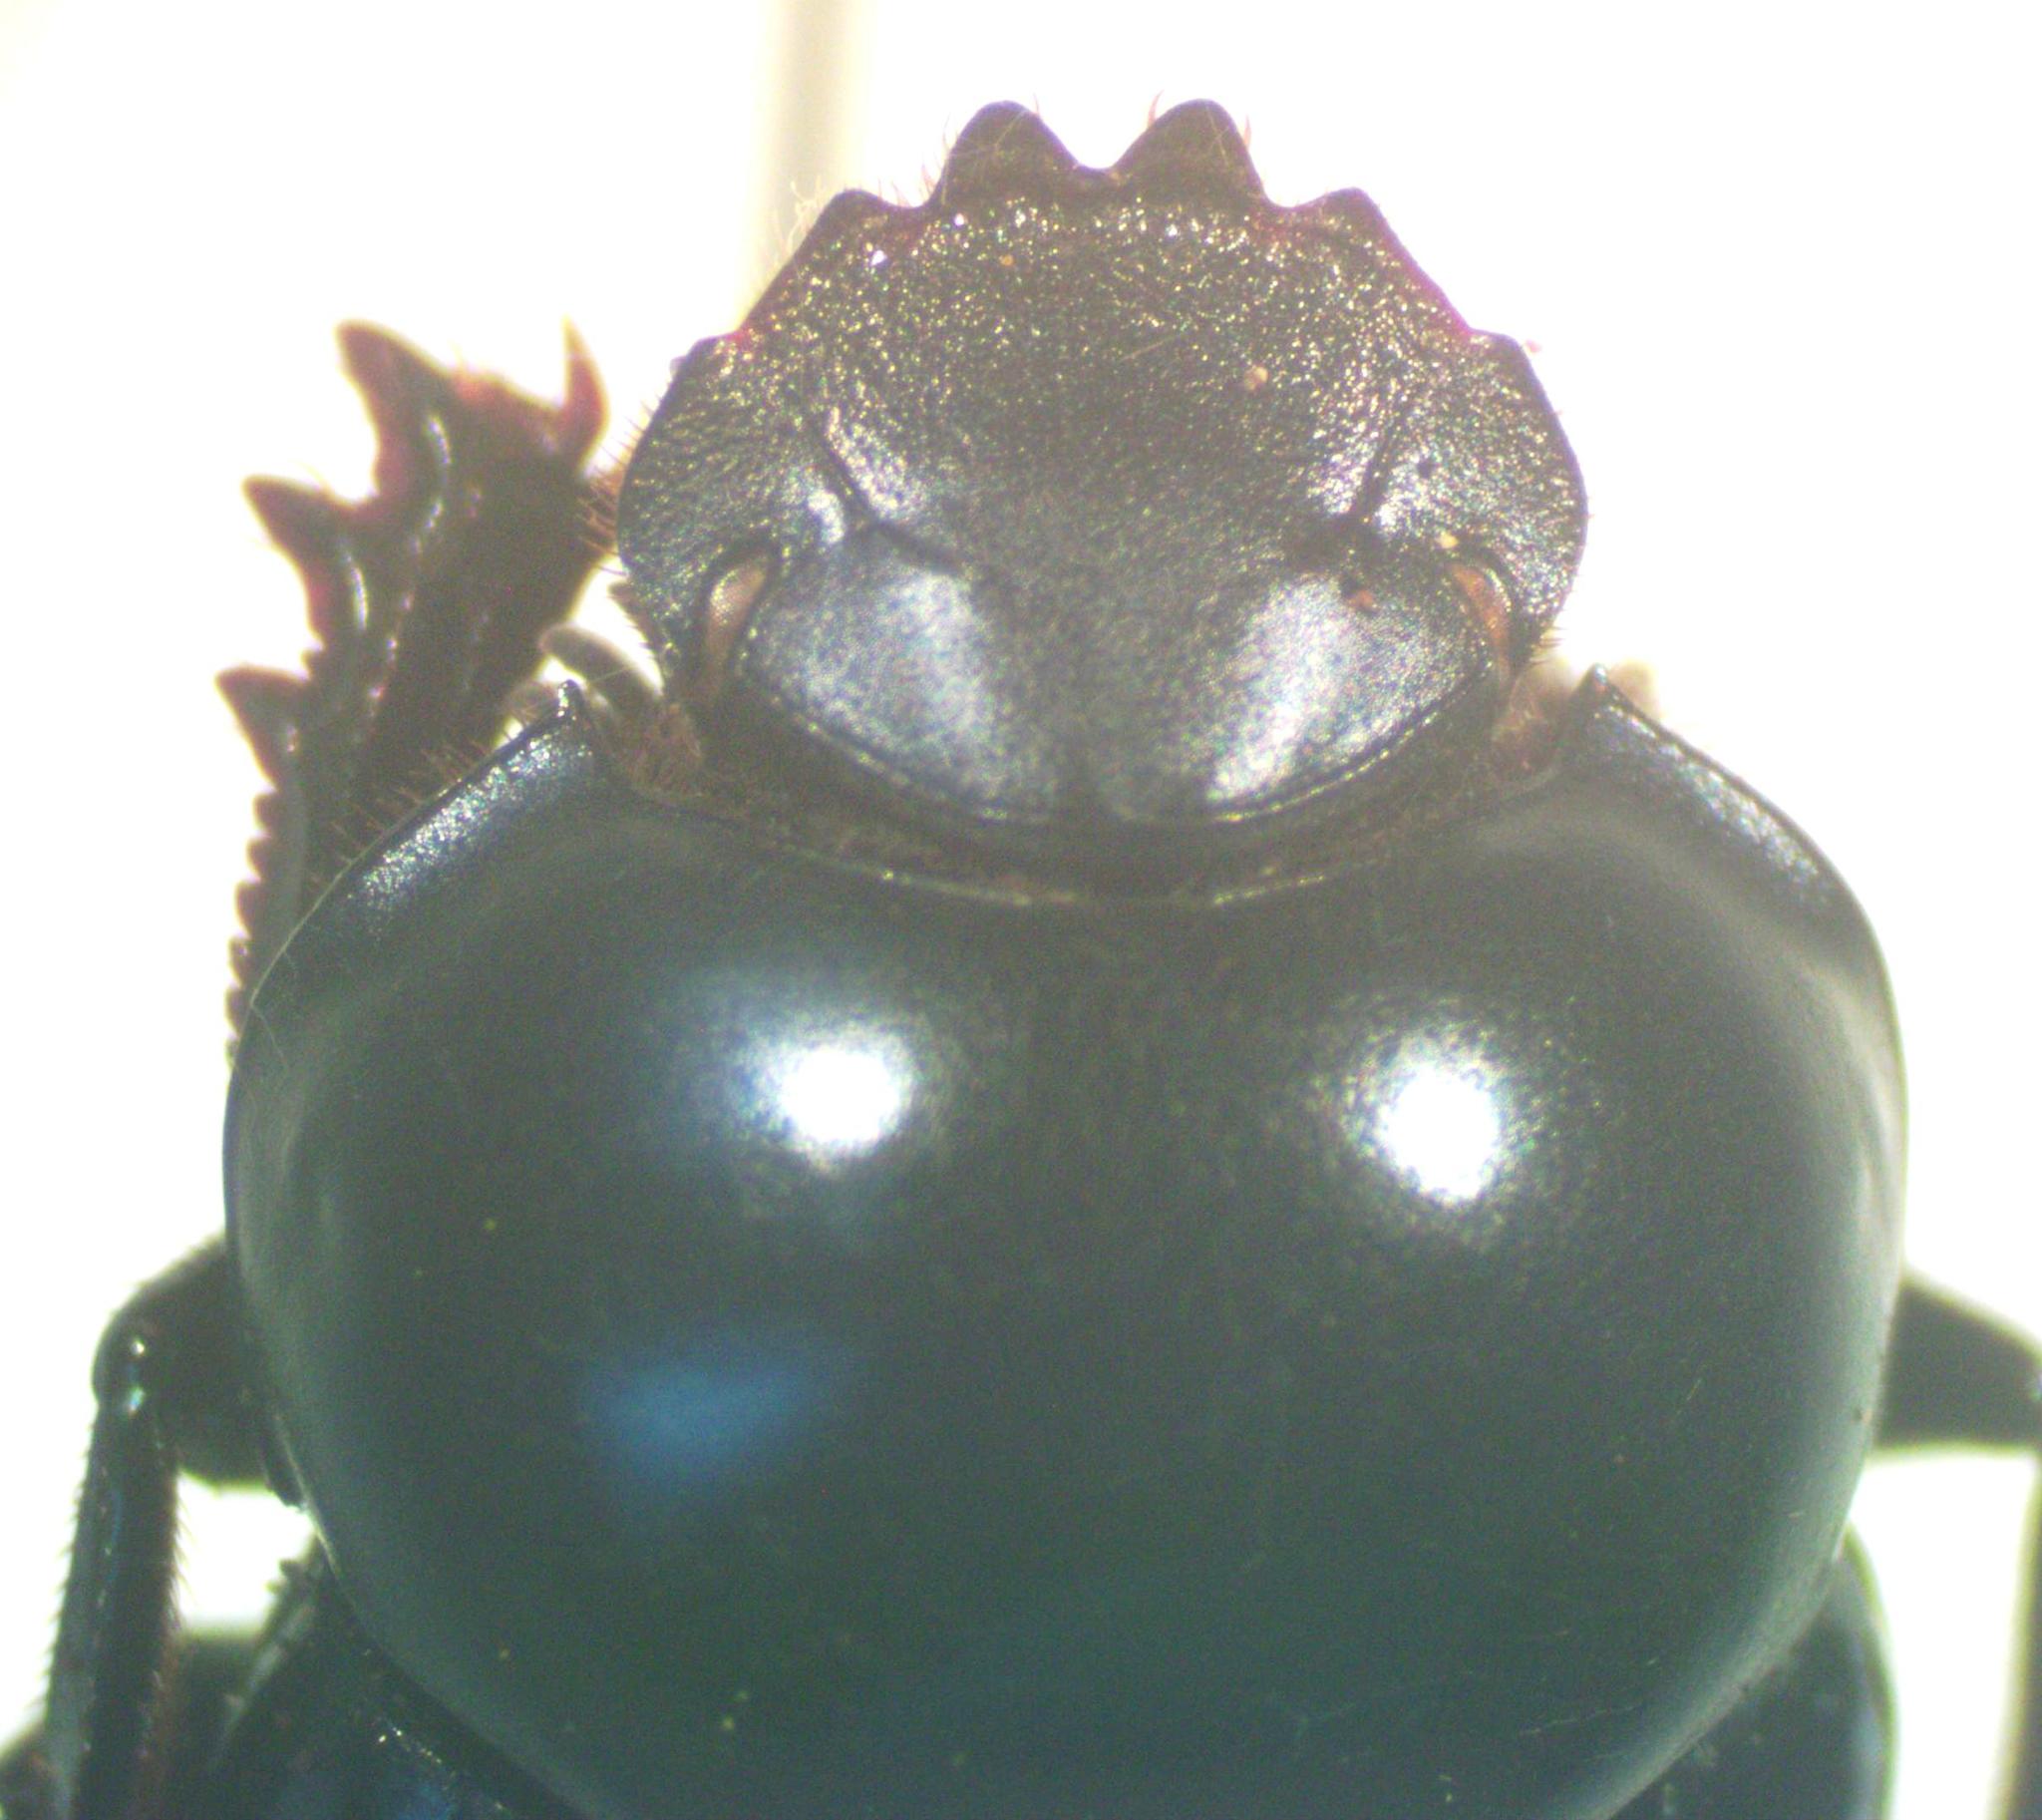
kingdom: Animalia
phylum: Arthropoda
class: Insecta
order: Coleoptera
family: Scarabaeidae
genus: Canthon
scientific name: Canthon deyrollei
